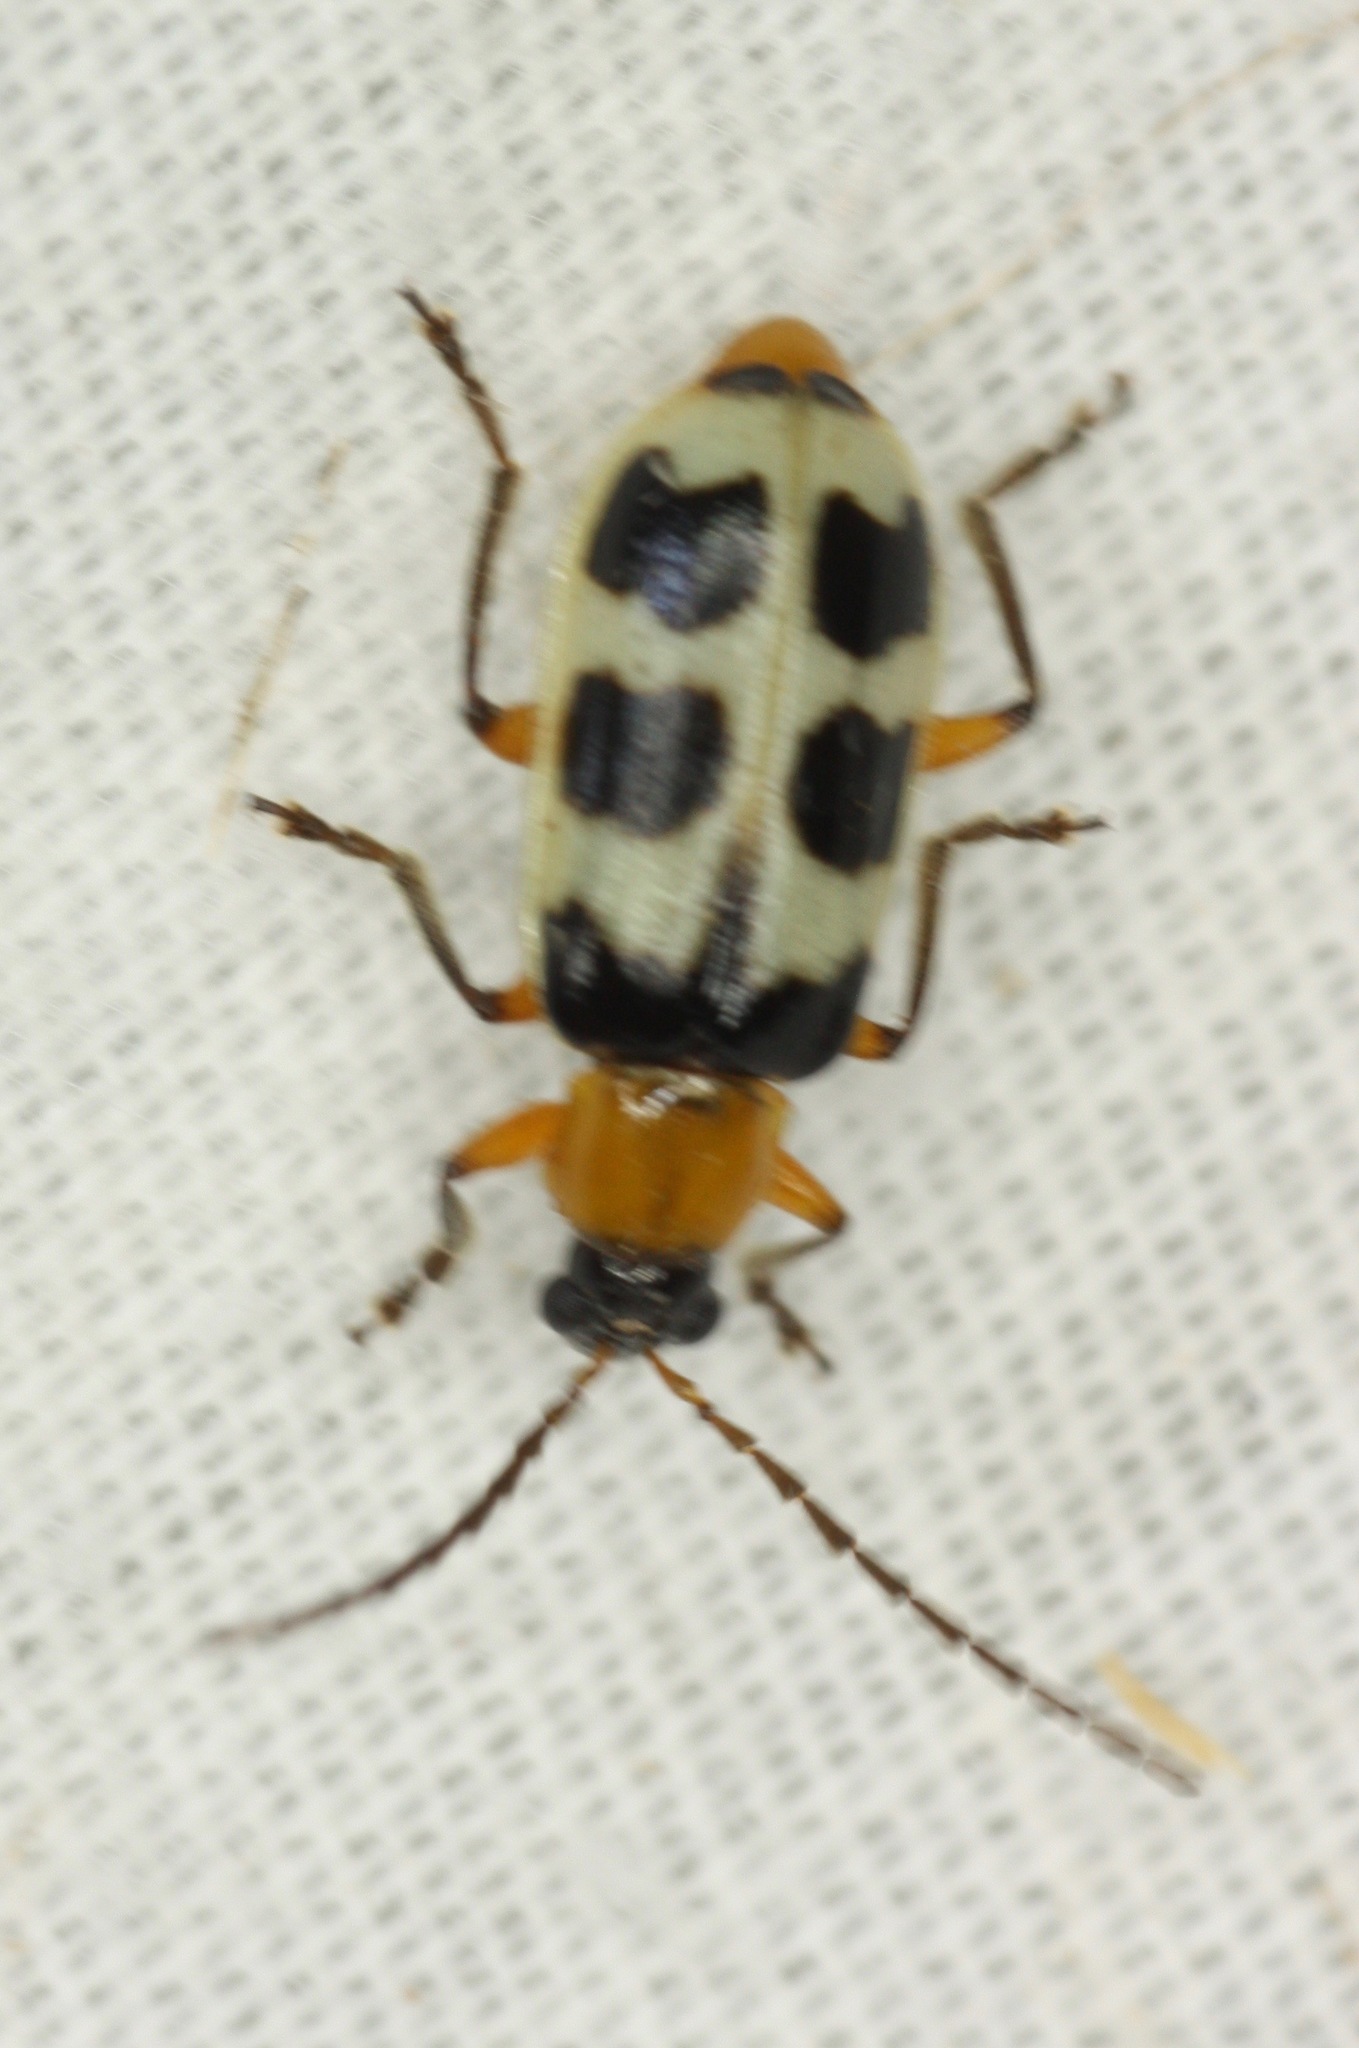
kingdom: Animalia
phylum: Arthropoda
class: Insecta
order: Coleoptera
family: Chrysomelidae
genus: Paranapiacaba
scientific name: Paranapiacaba tricincta
